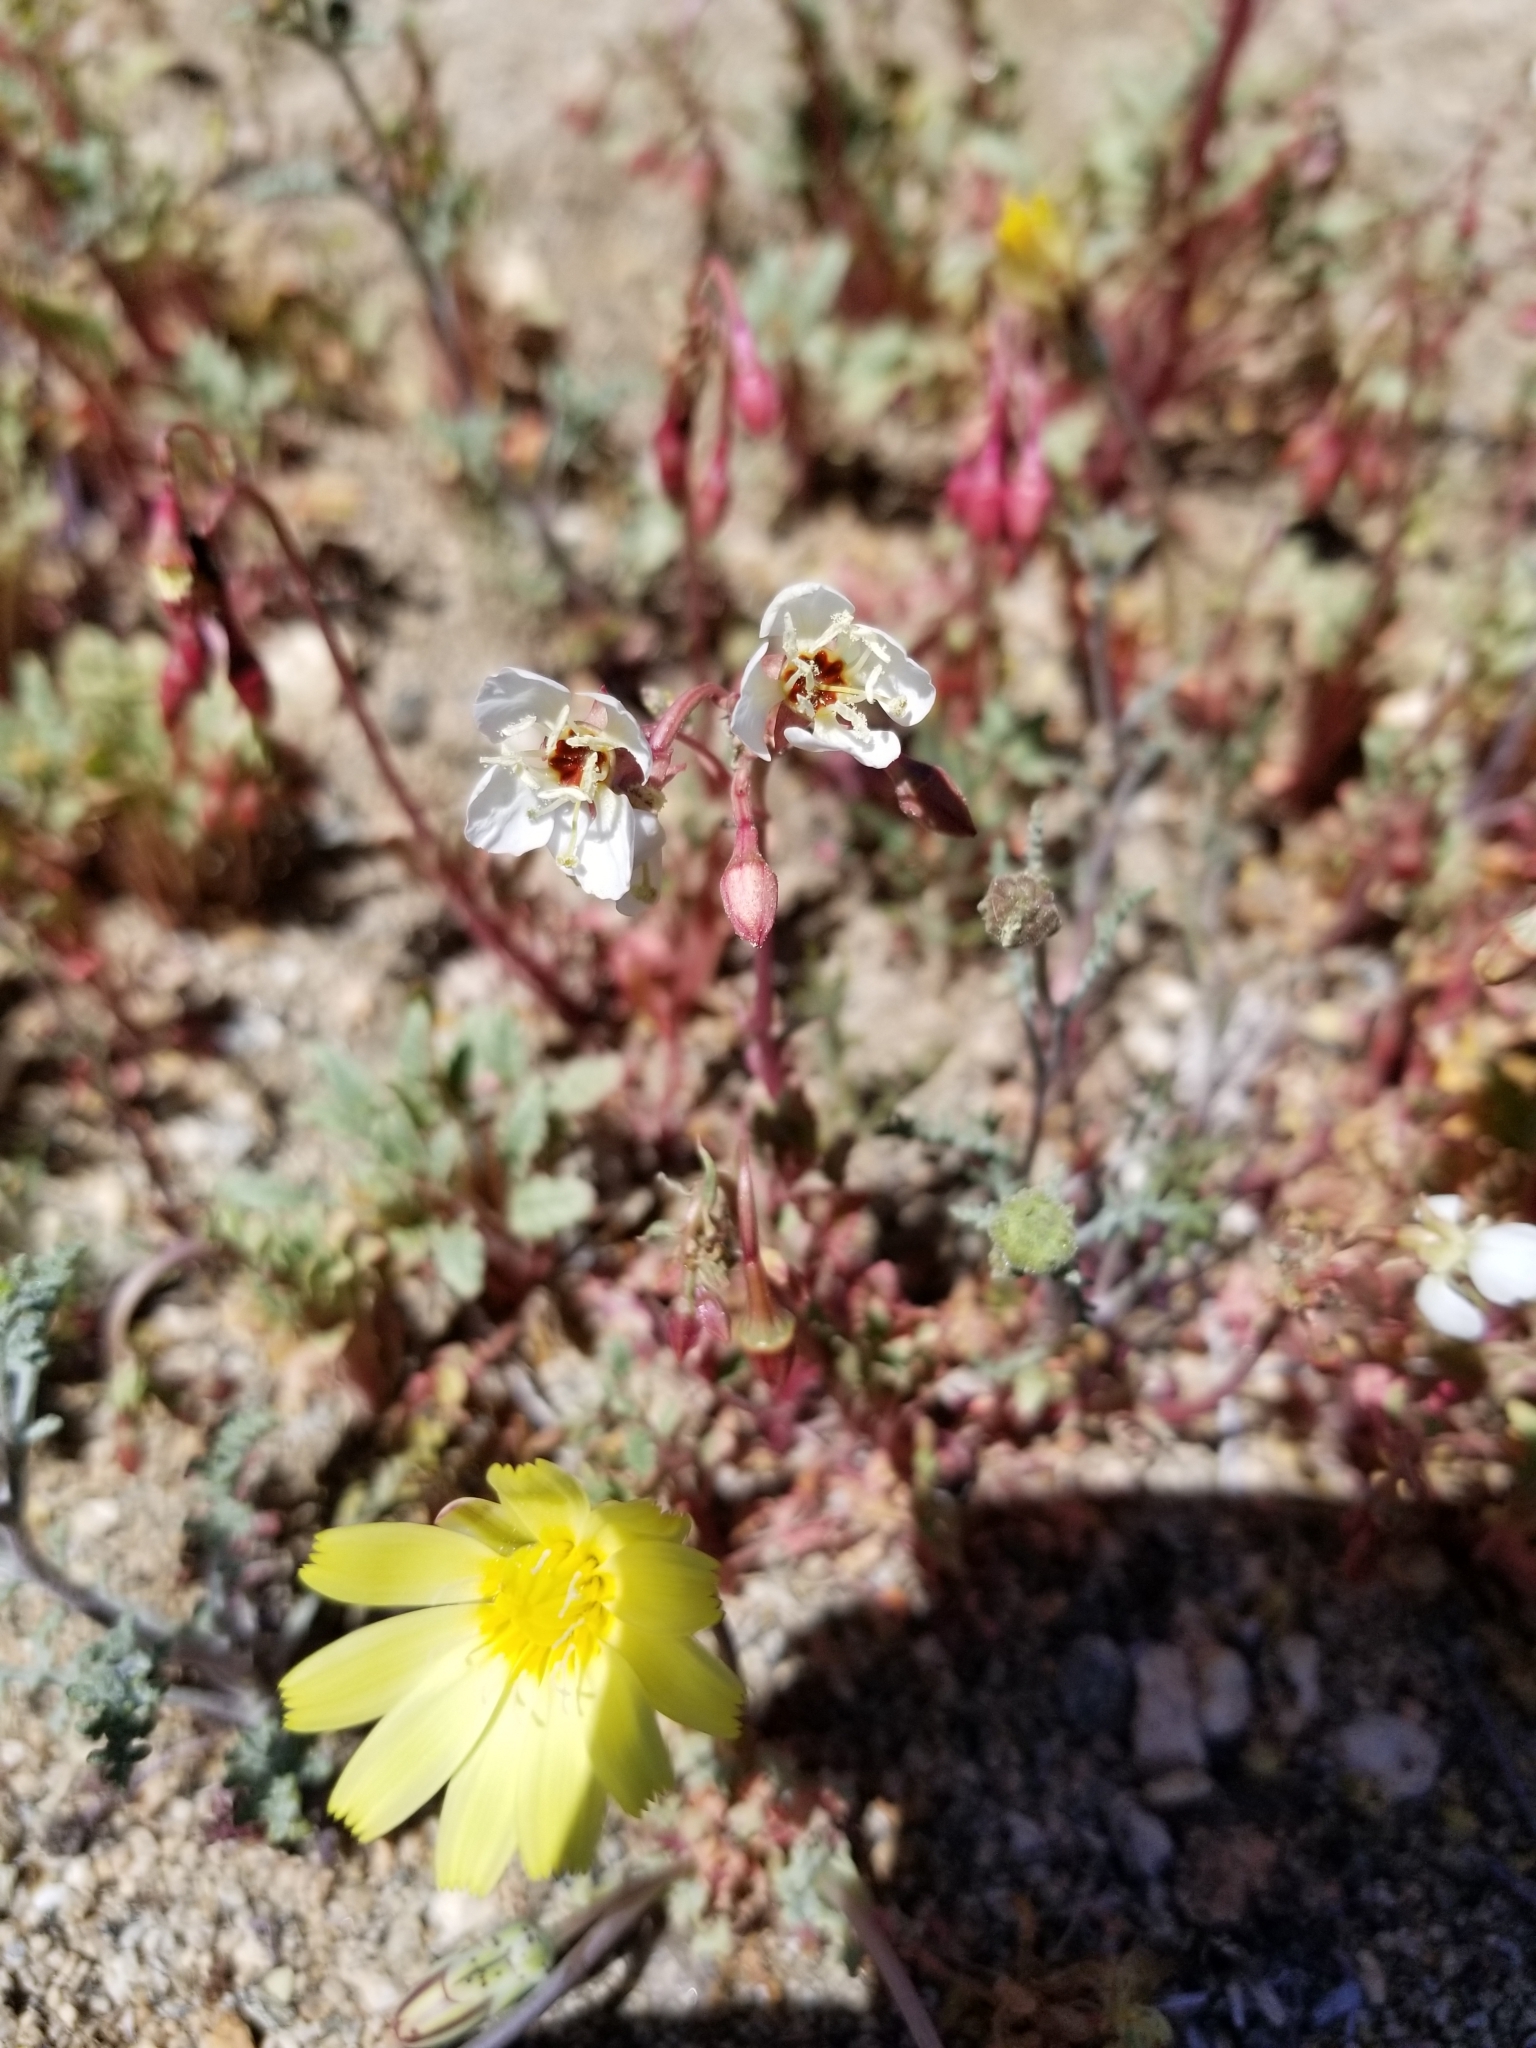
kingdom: Plantae
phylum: Tracheophyta
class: Magnoliopsida
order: Myrtales
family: Onagraceae
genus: Chylismia
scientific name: Chylismia claviformis
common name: Browneyes
